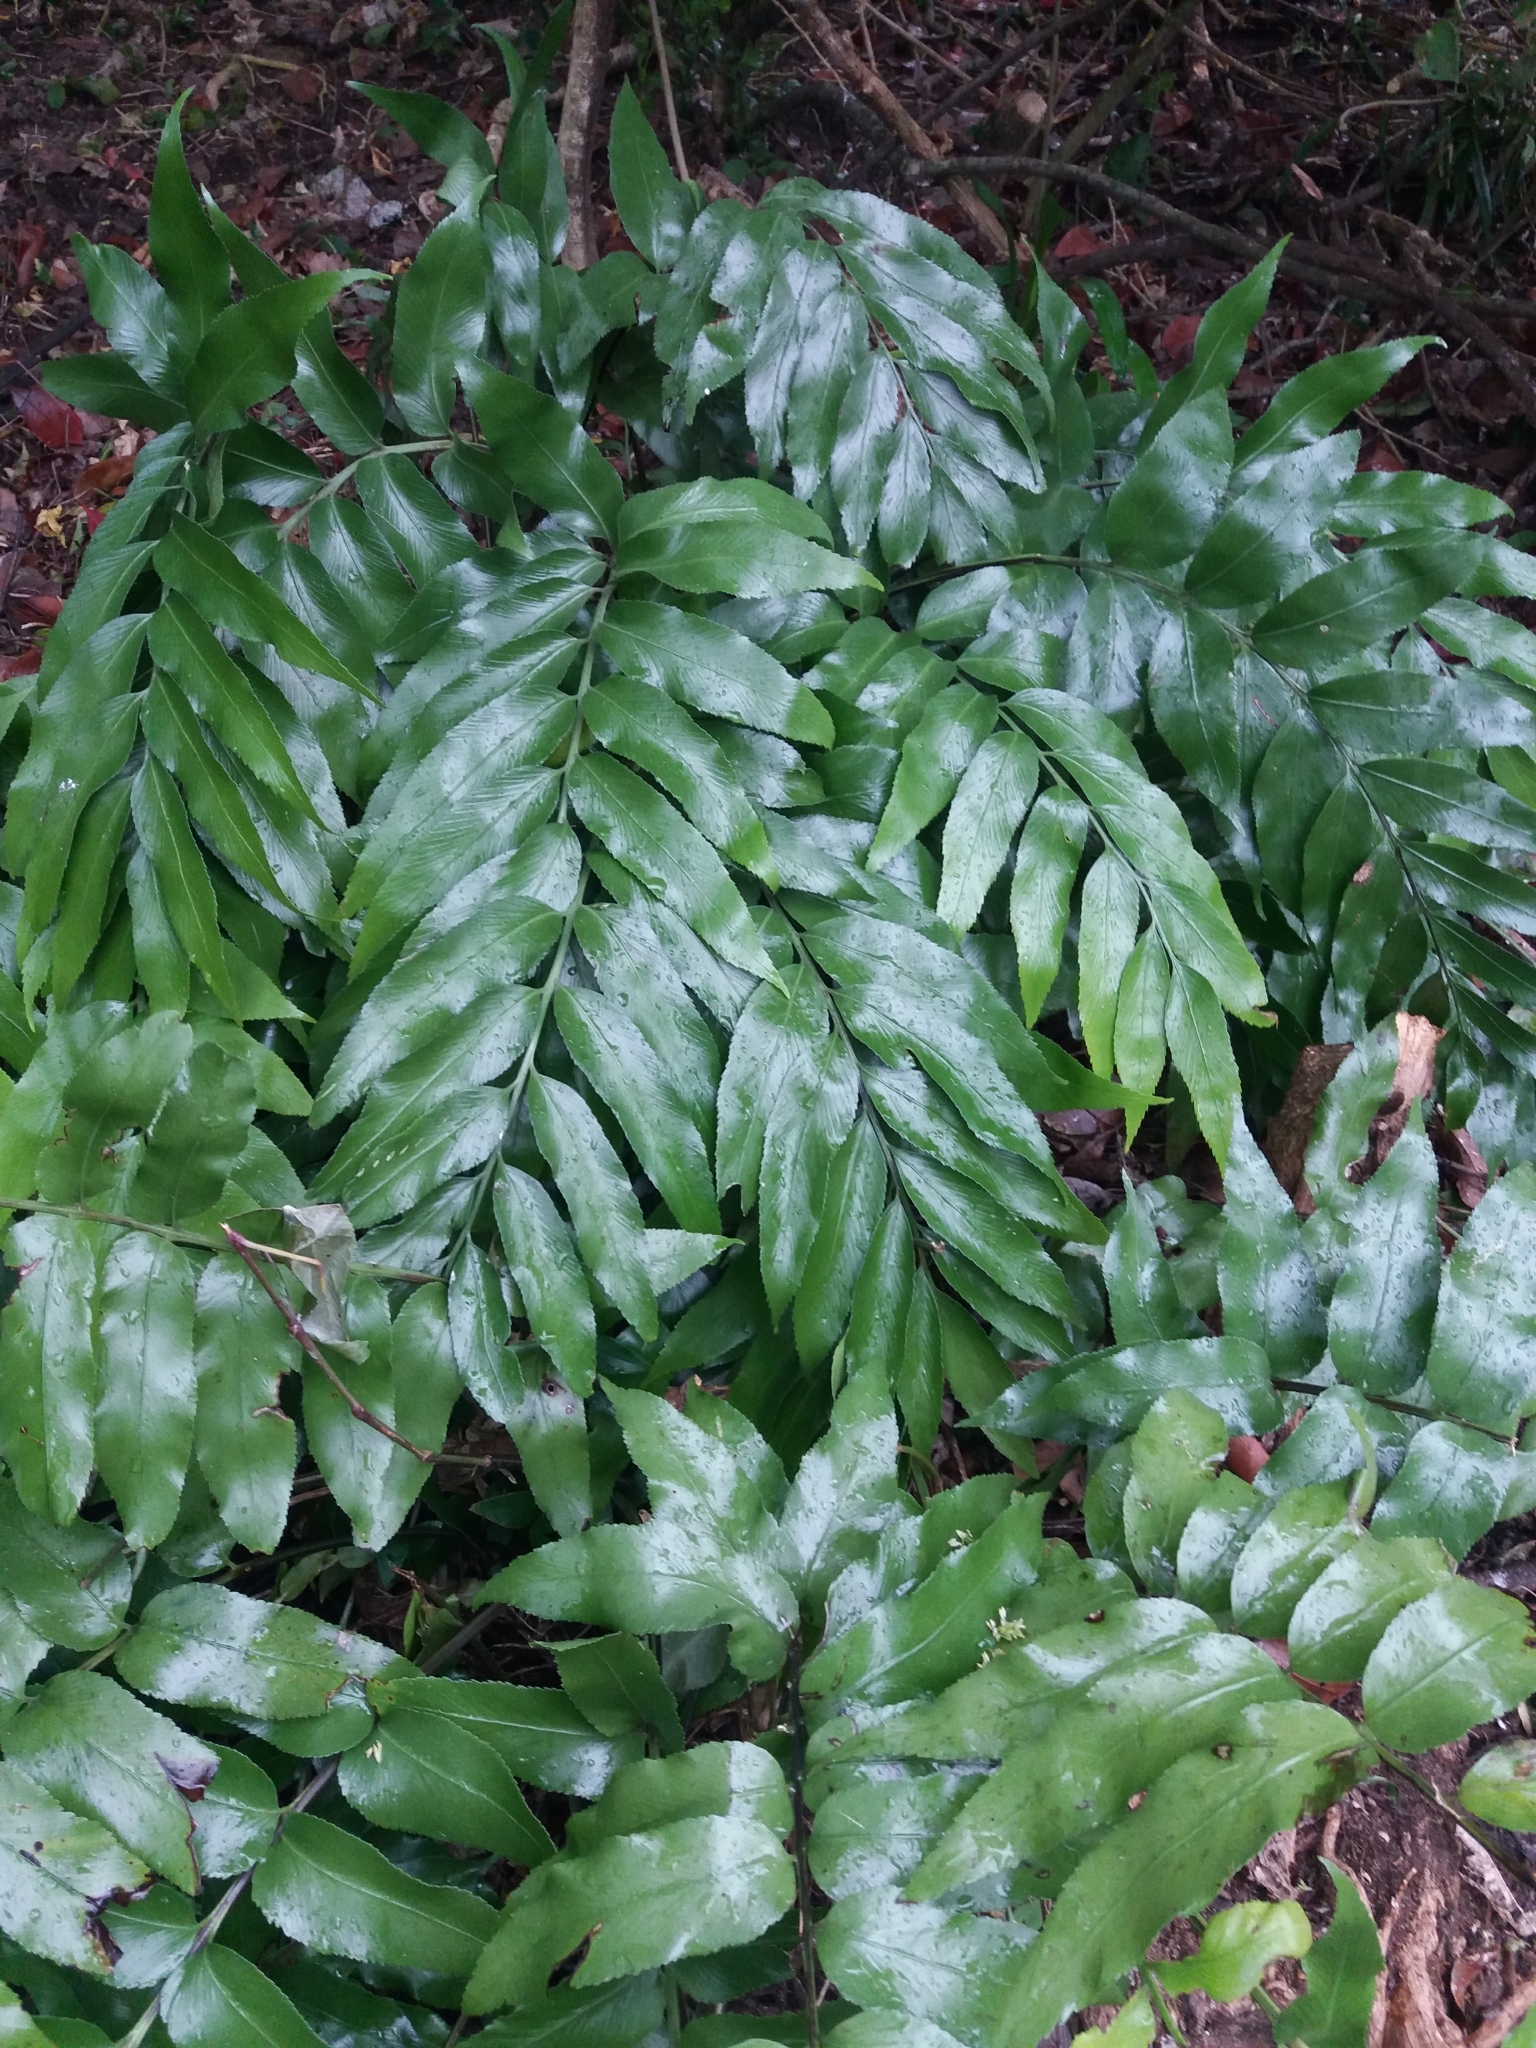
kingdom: Plantae
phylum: Tracheophyta
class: Polypodiopsida
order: Polypodiales
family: Aspleniaceae
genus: Asplenium
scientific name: Asplenium oblongifolium
